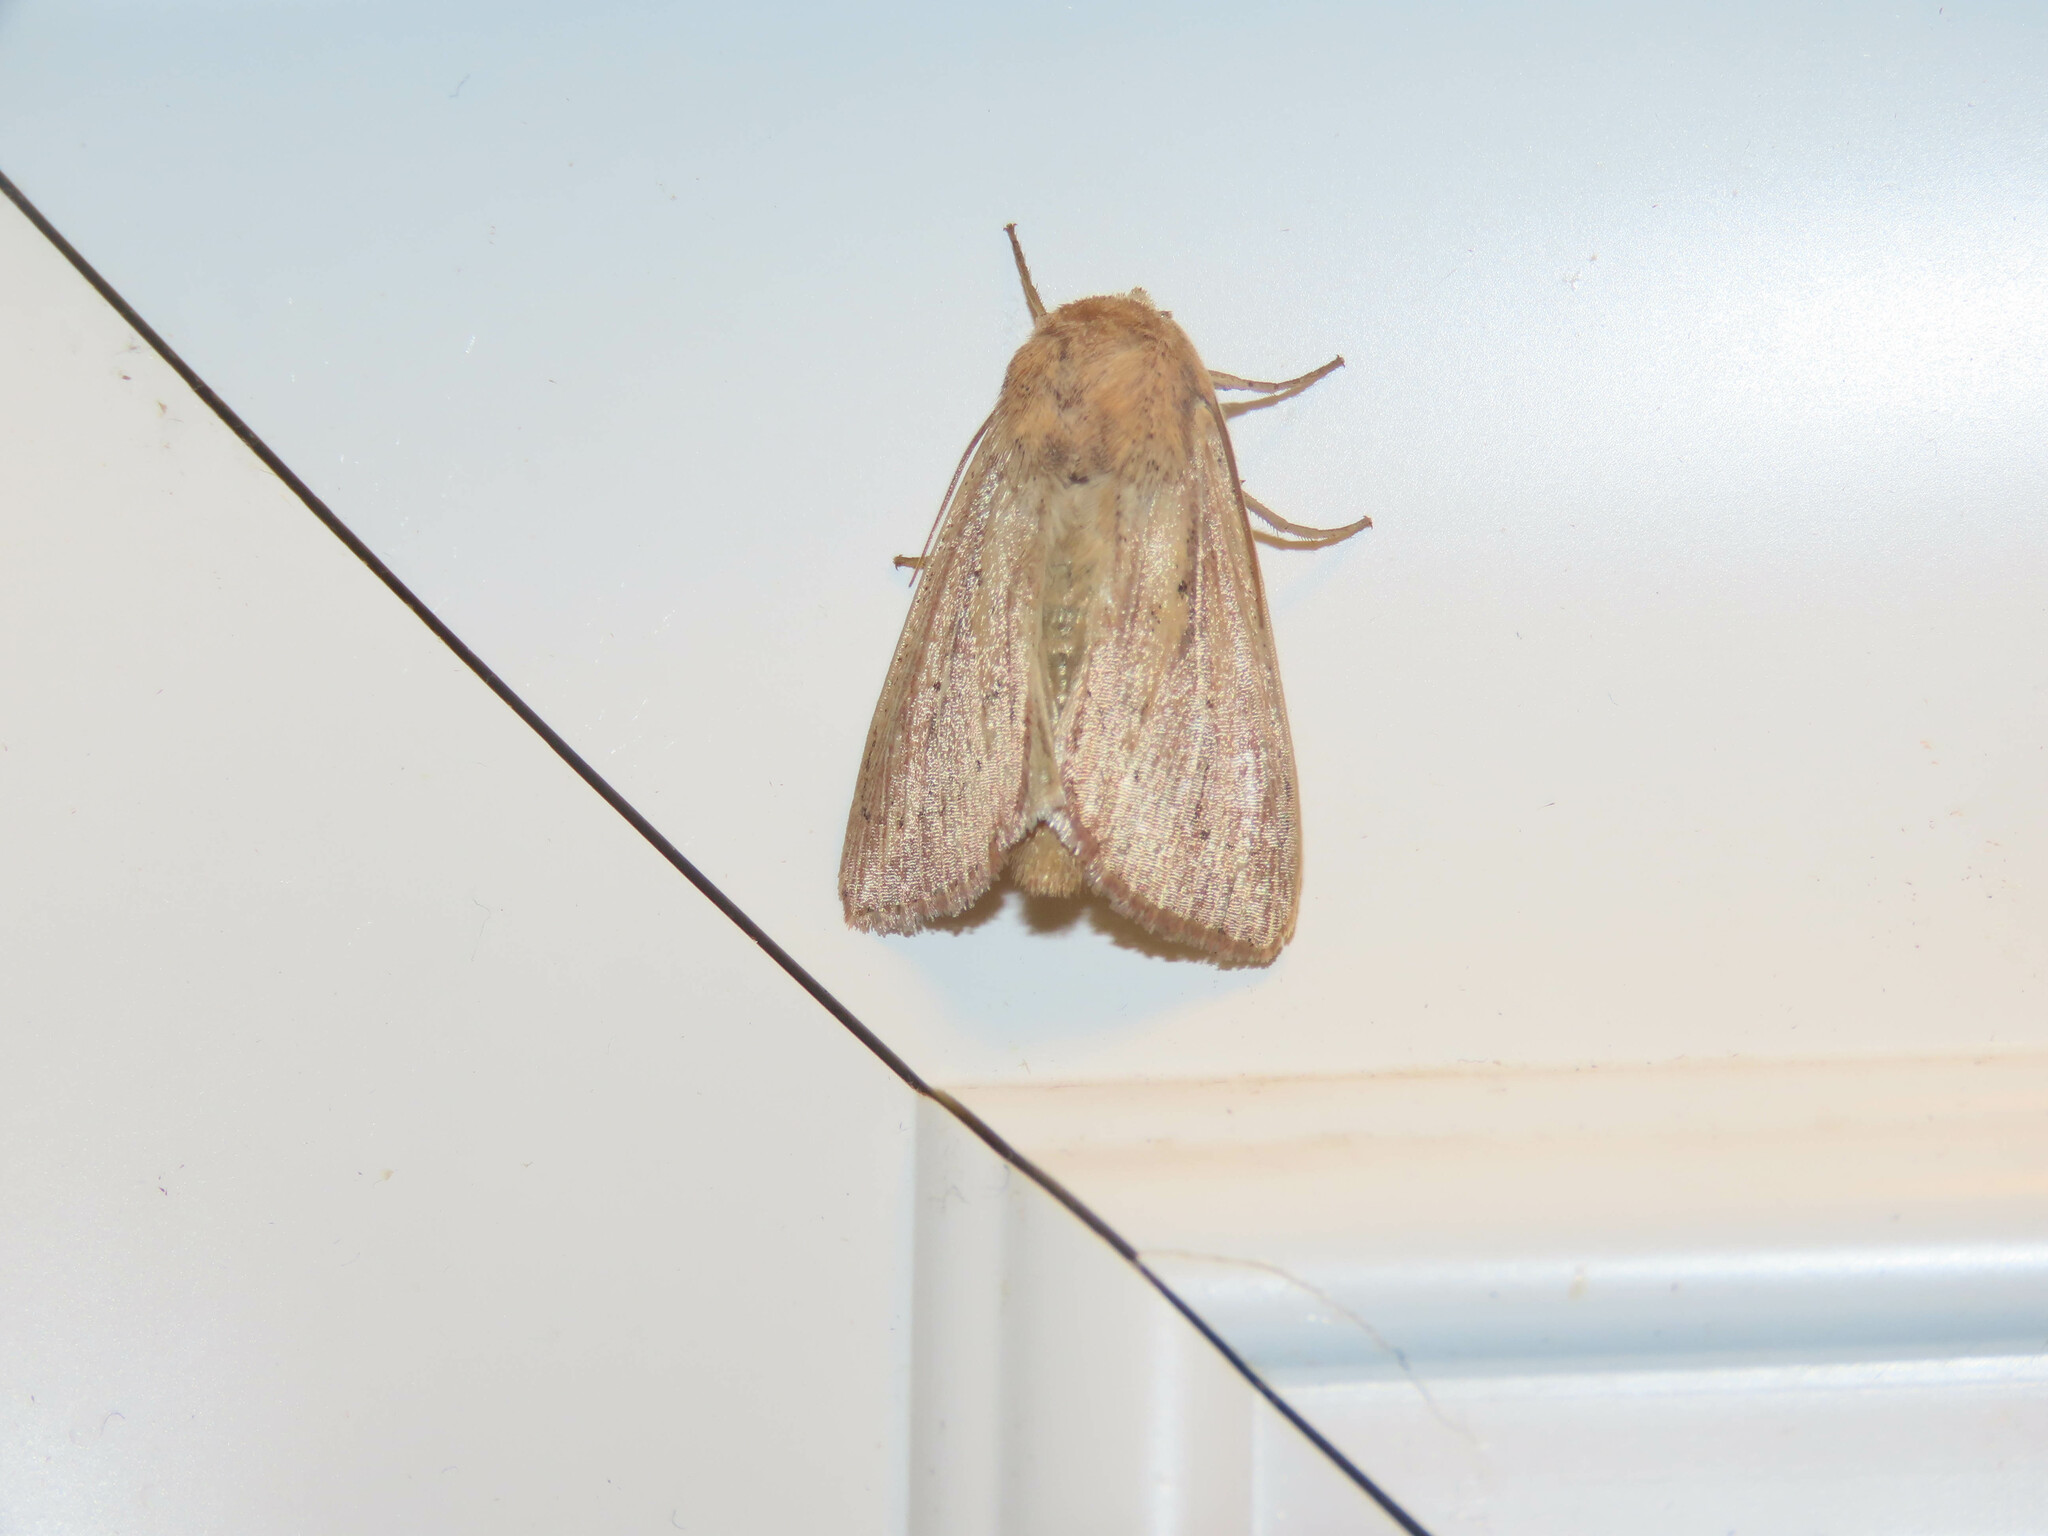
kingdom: Animalia
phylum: Arthropoda
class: Insecta
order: Lepidoptera
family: Noctuidae
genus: Mythimna
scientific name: Mythimna oxygala
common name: Lesser wainscot
